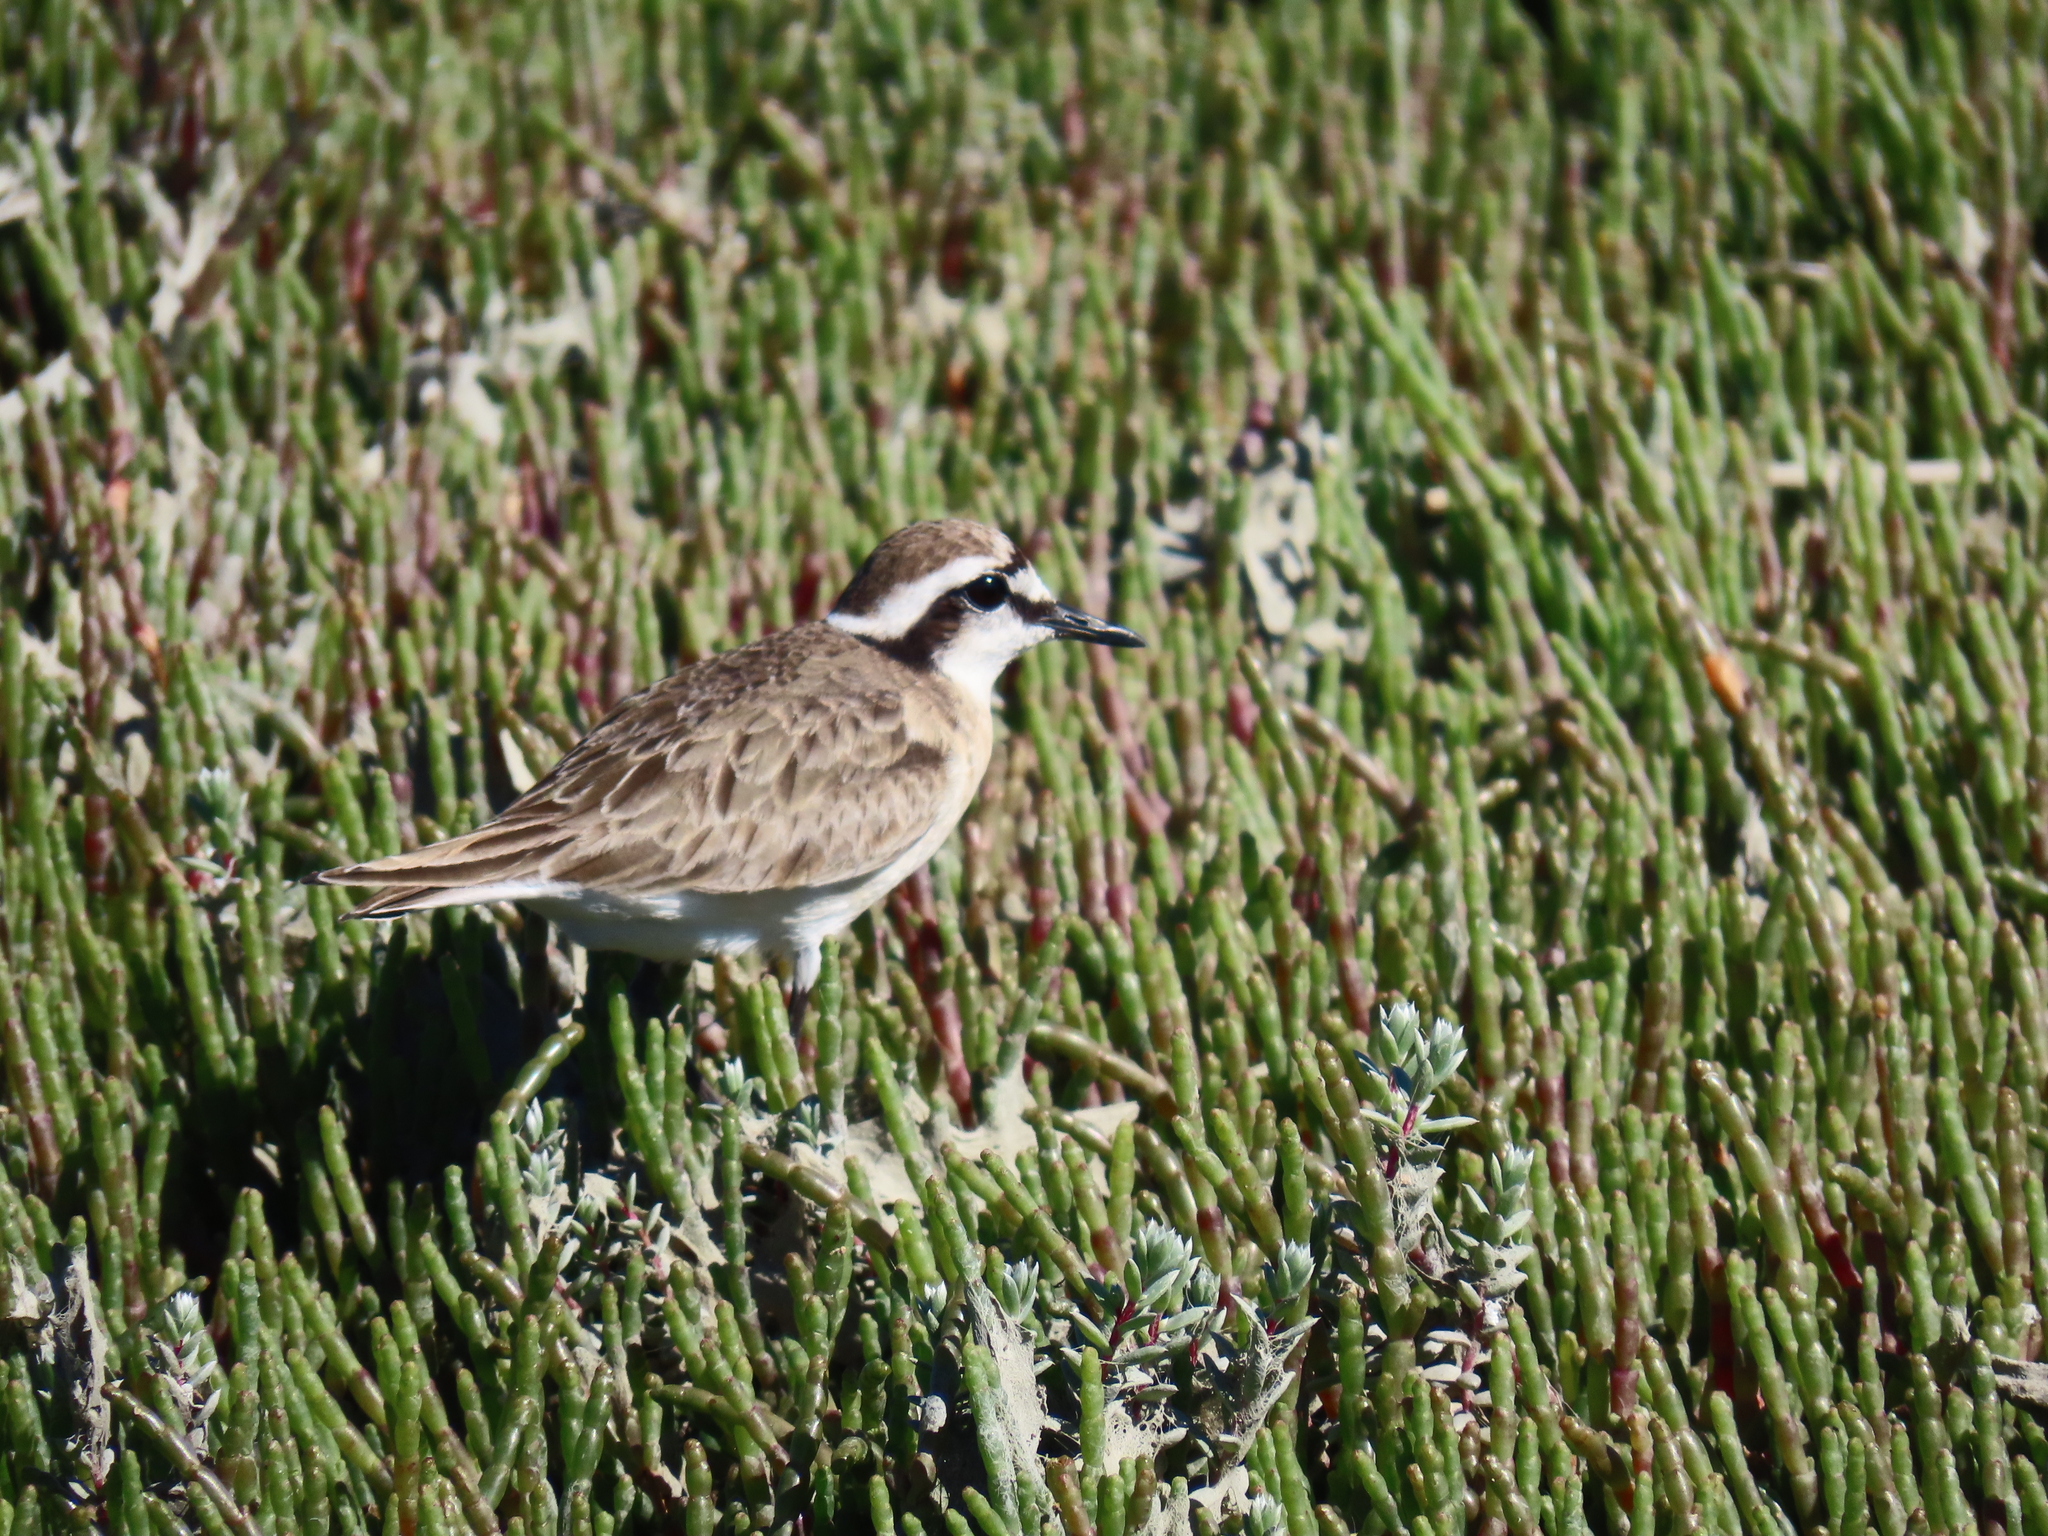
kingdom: Animalia
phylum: Chordata
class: Aves
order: Charadriiformes
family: Charadriidae
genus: Anarhynchus
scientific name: Anarhynchus
